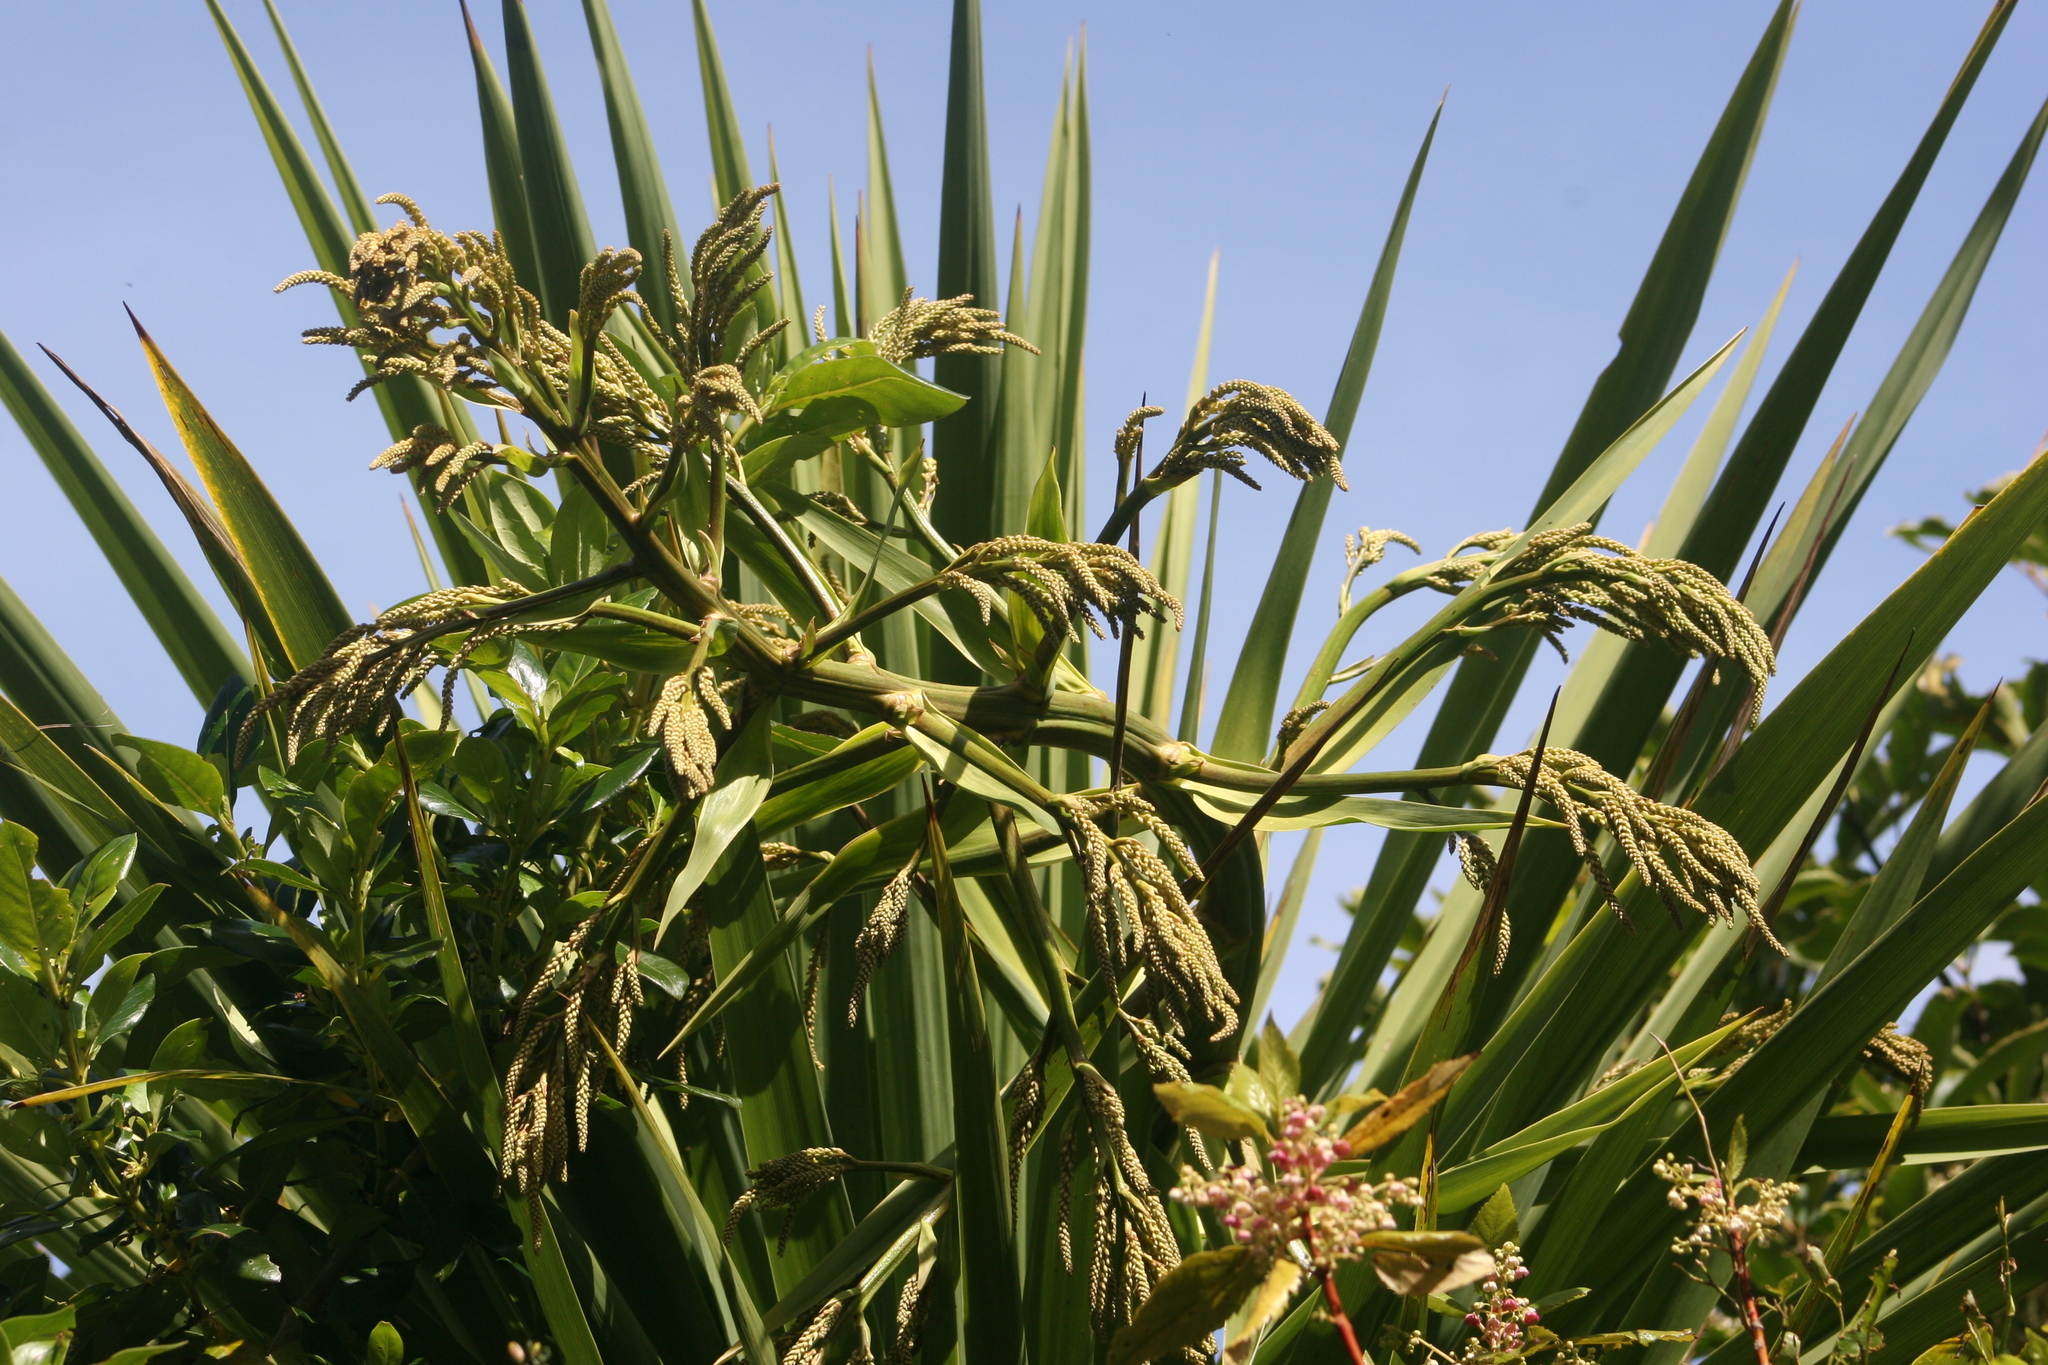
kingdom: Plantae
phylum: Tracheophyta
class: Liliopsida
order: Asparagales
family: Asparagaceae
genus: Cordyline
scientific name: Cordyline australis
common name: Cabbage-palm
